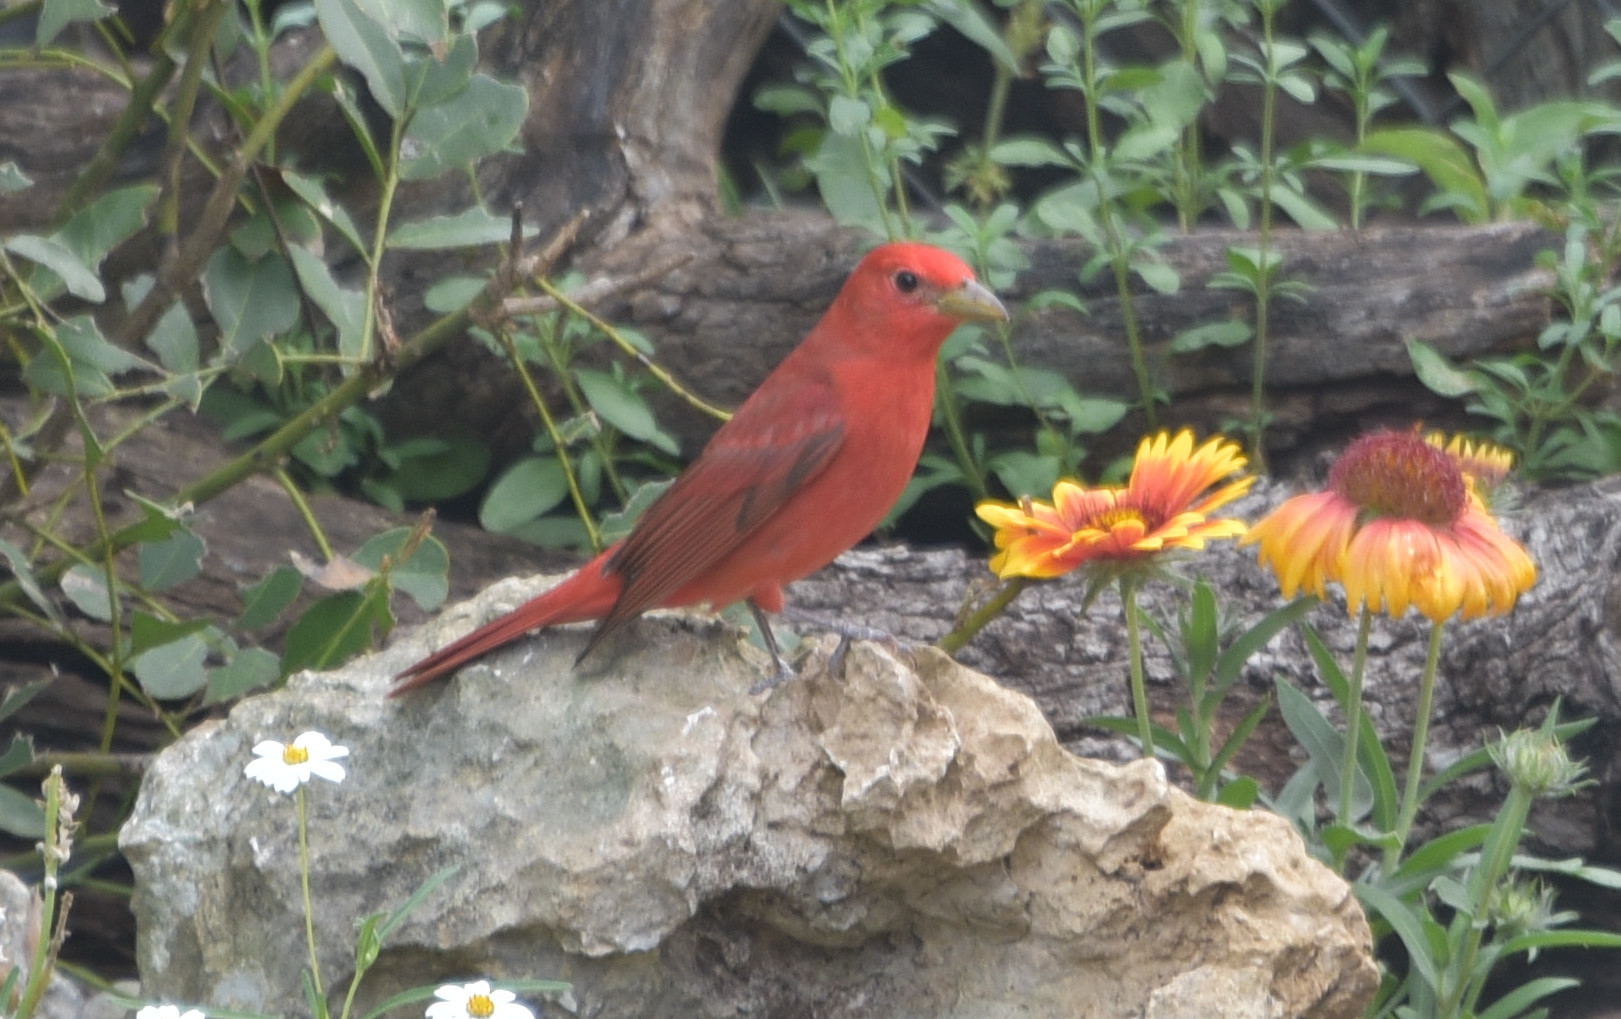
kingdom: Animalia
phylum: Chordata
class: Aves
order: Passeriformes
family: Cardinalidae
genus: Piranga
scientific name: Piranga rubra
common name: Summer tanager
